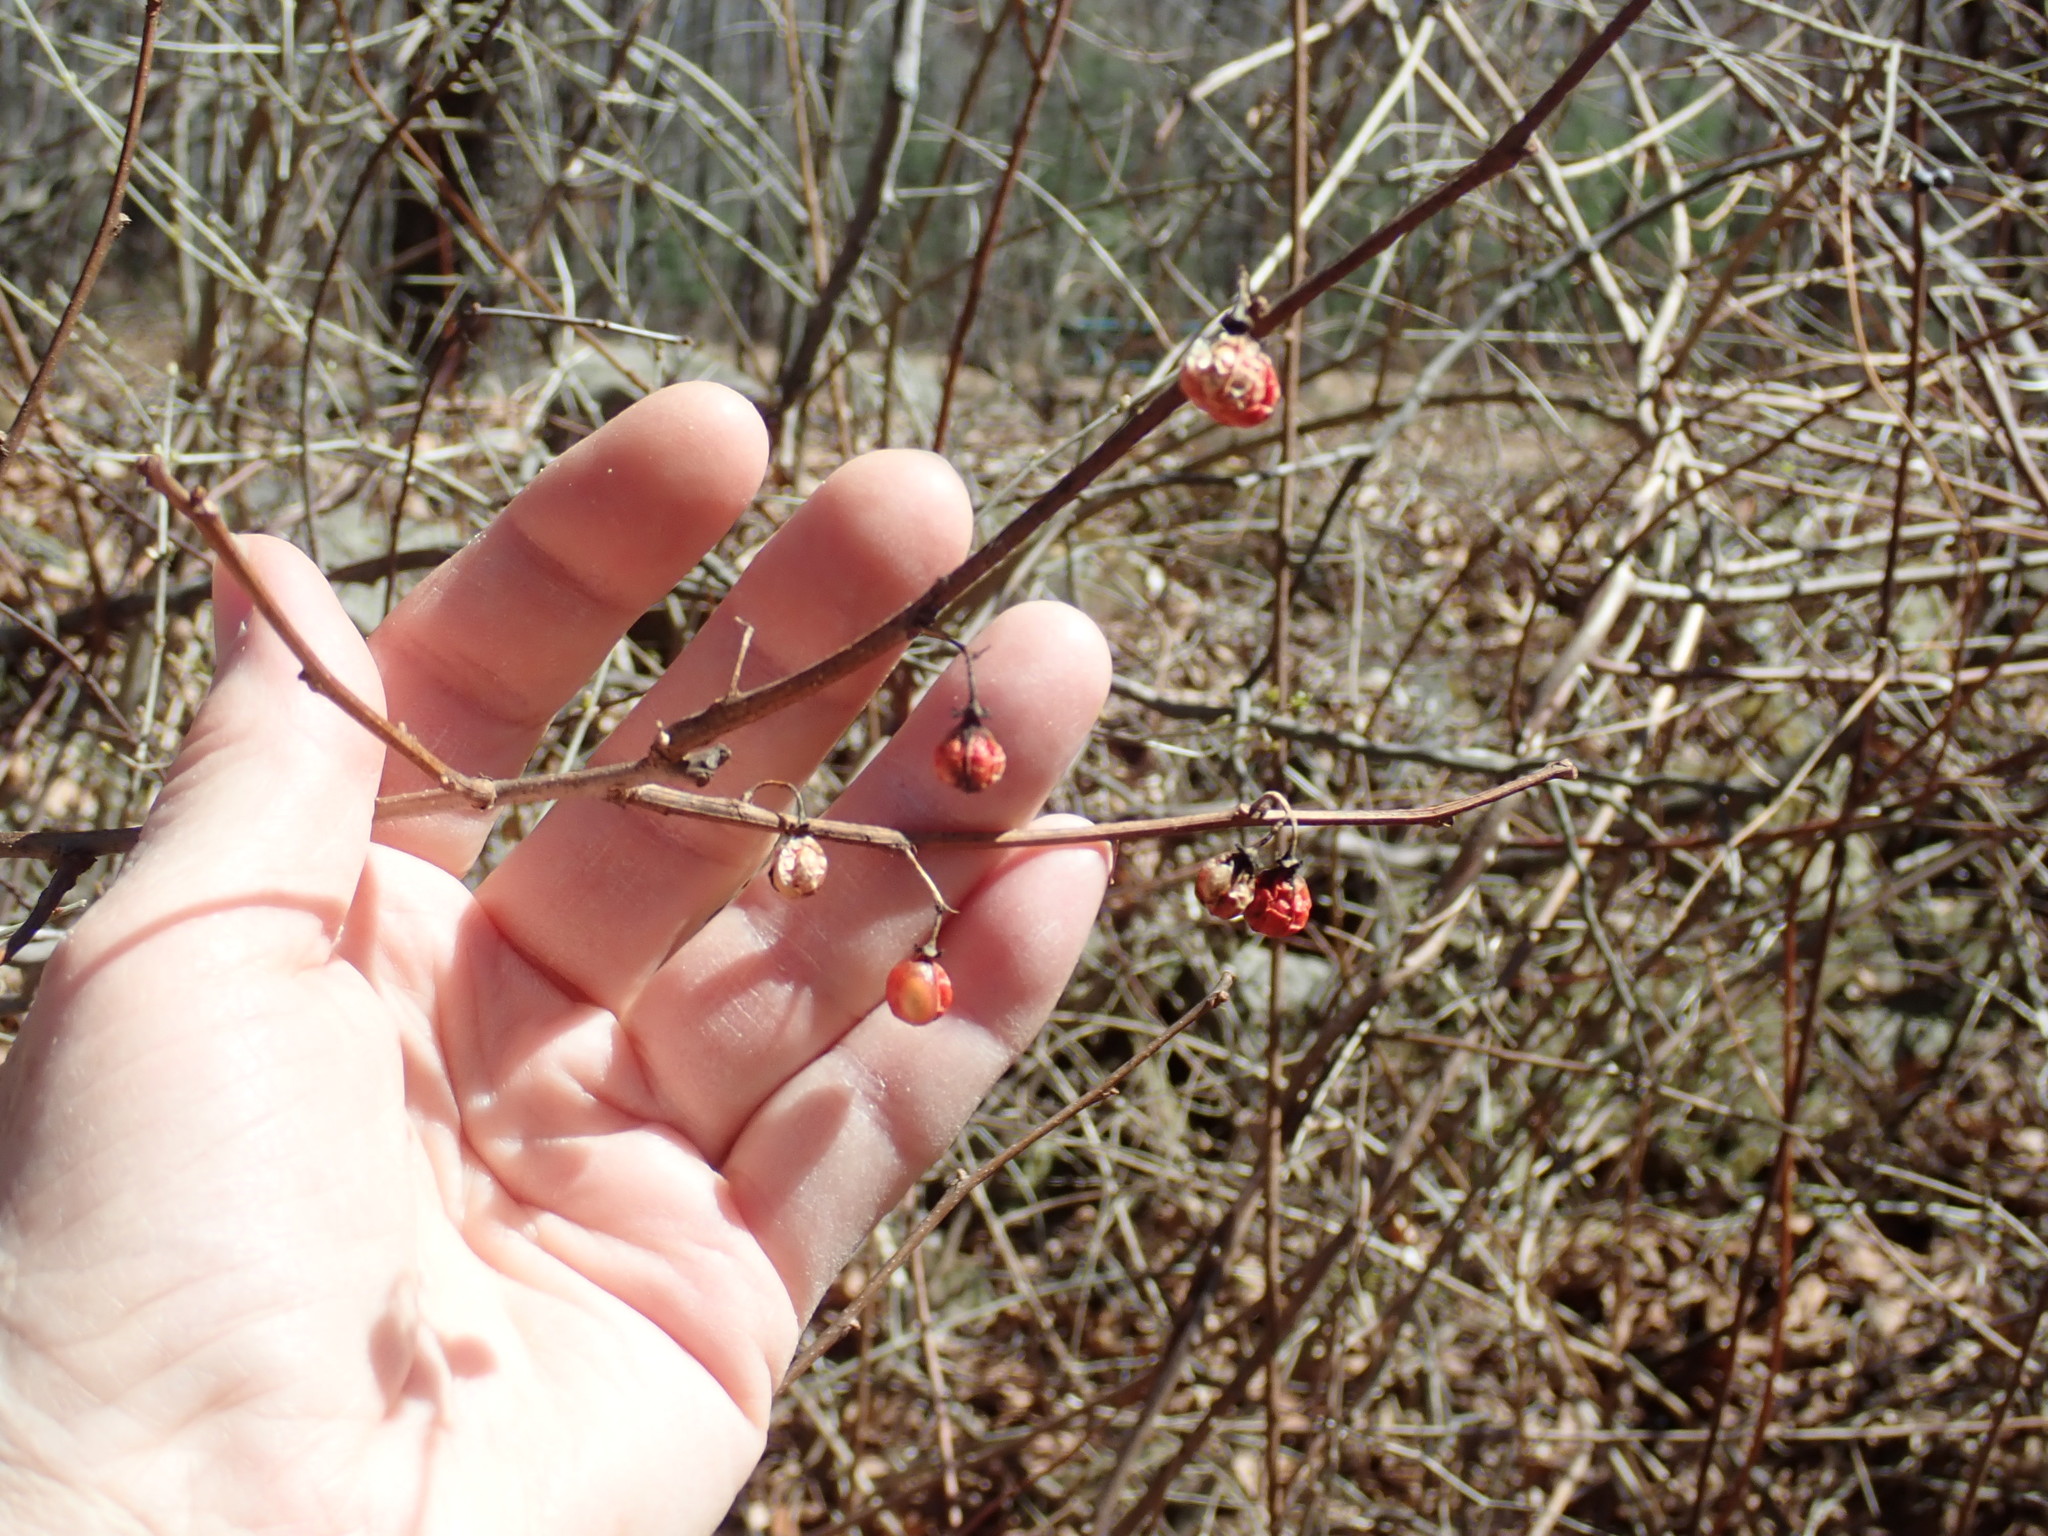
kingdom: Plantae
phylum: Tracheophyta
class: Magnoliopsida
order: Celastrales
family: Celastraceae
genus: Celastrus
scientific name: Celastrus orbiculatus
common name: Oriental bittersweet
